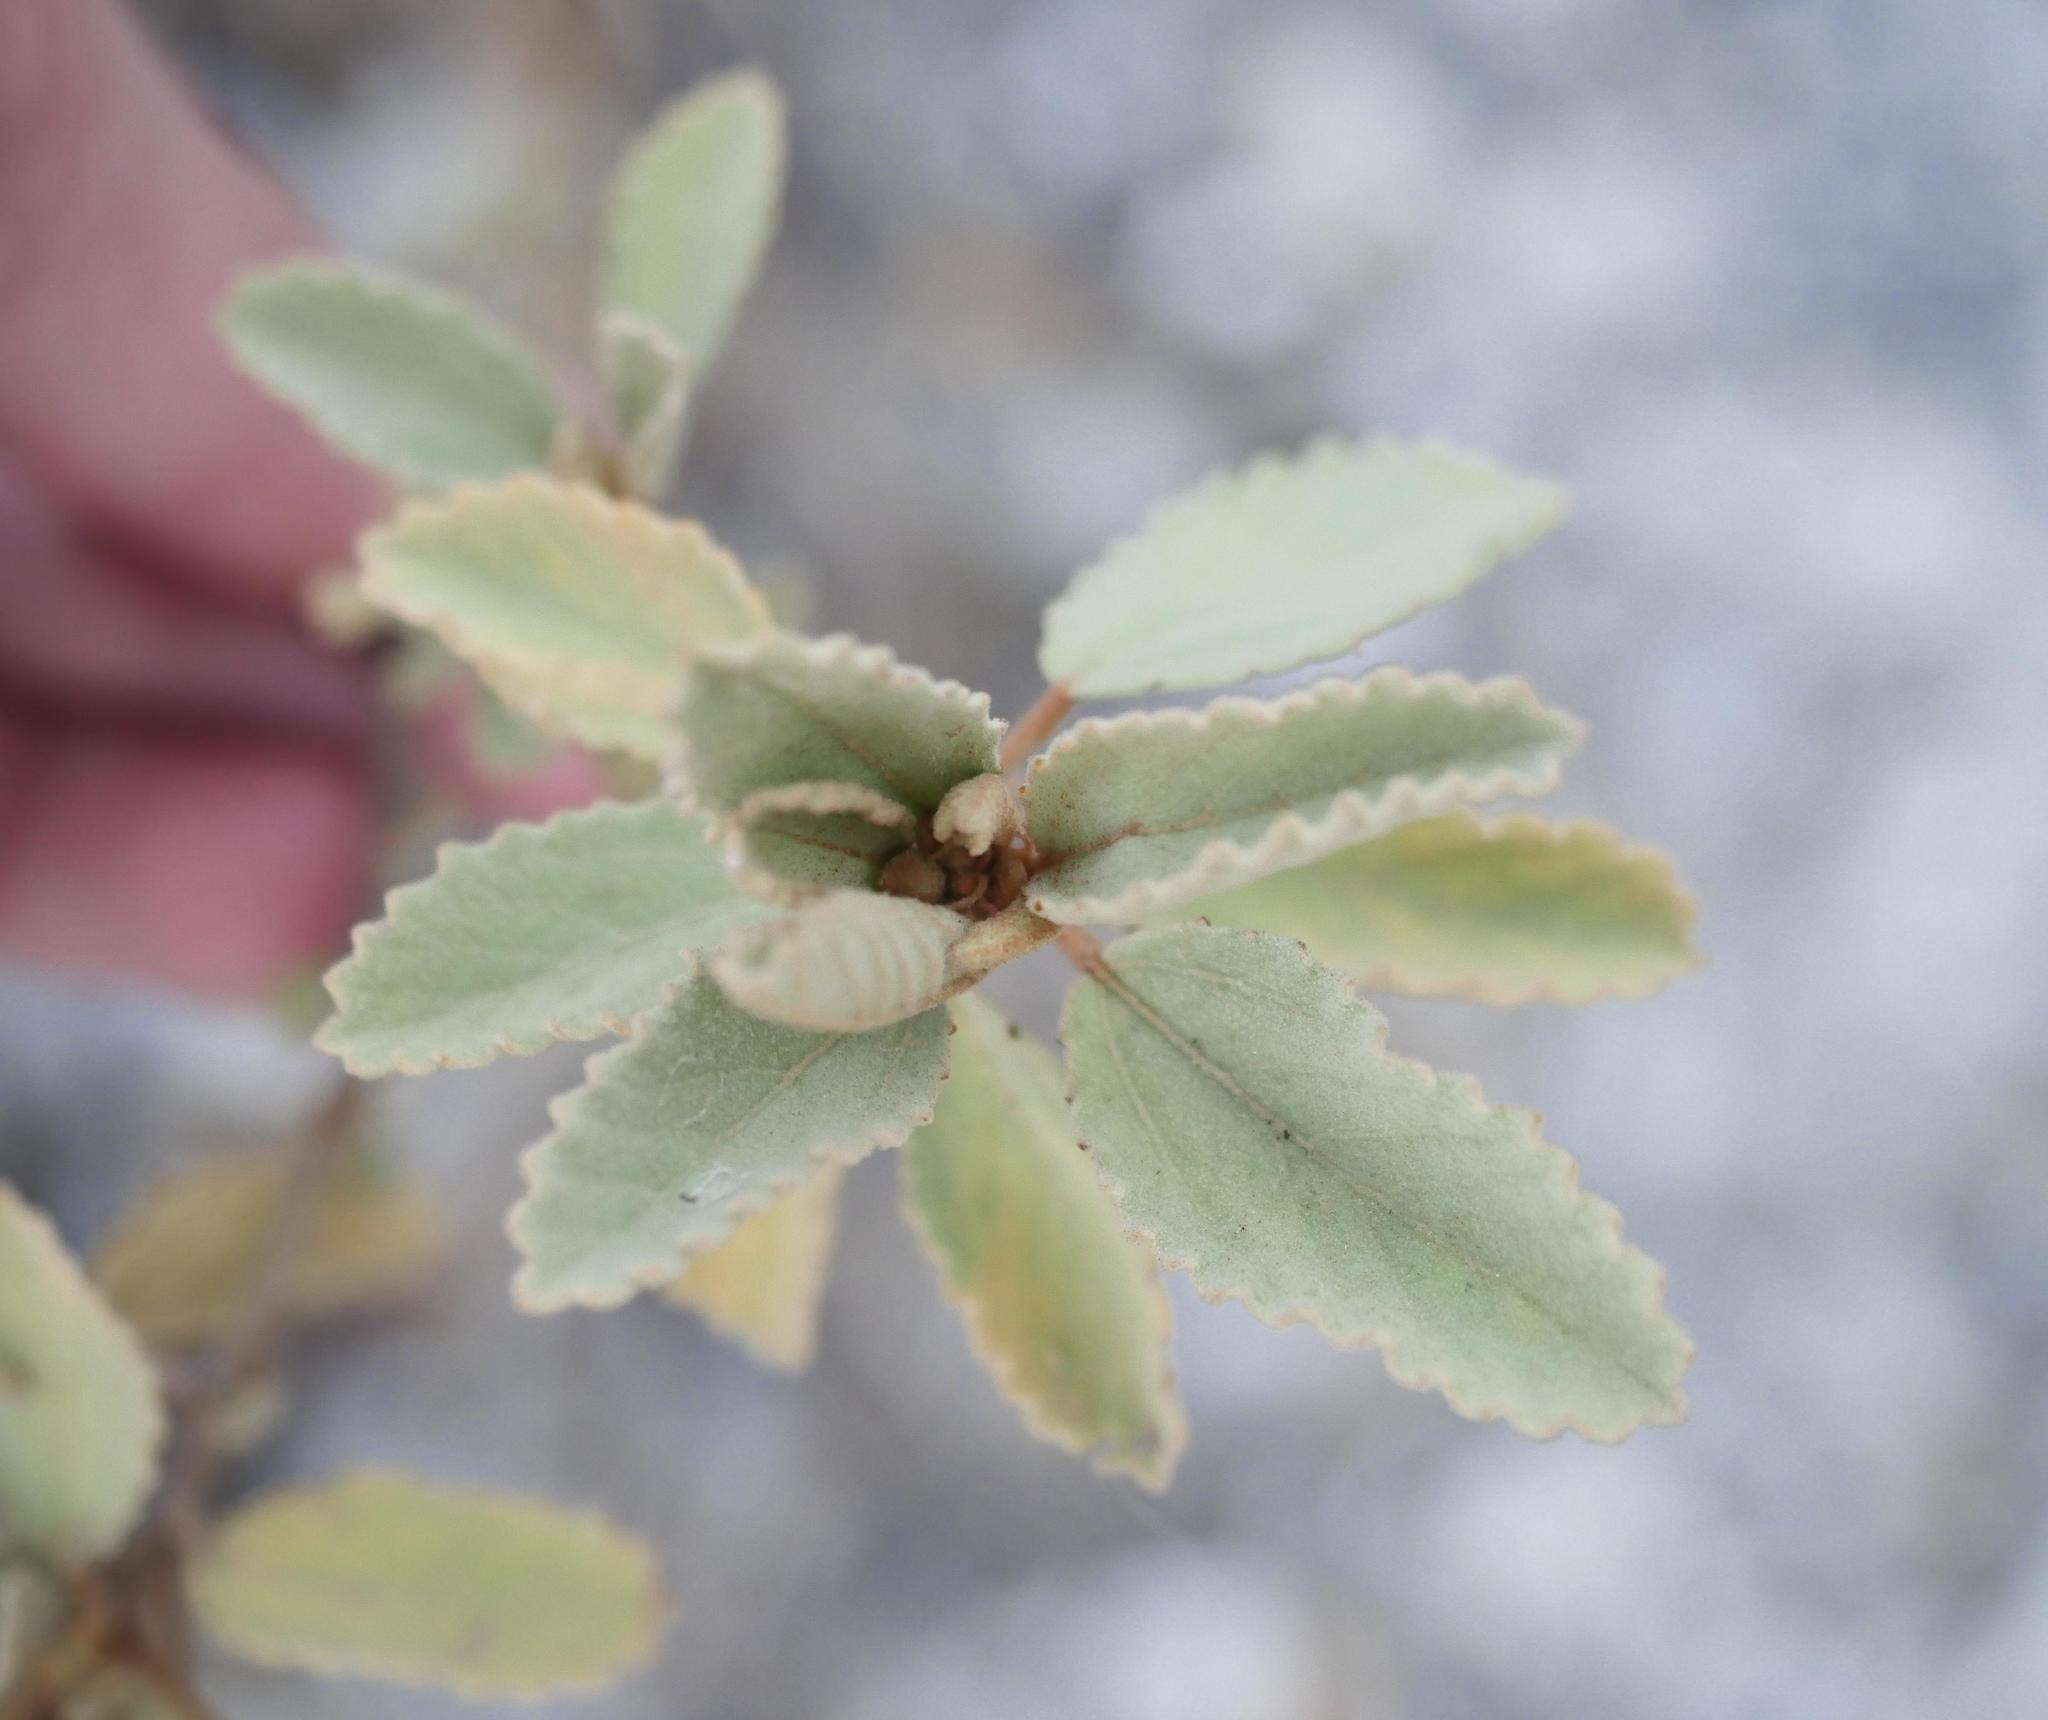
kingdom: Plantae
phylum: Tracheophyta
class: Magnoliopsida
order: Malvales
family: Malvaceae
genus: Corchorus
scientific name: Corchorus hirsutus
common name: Jackswitch
